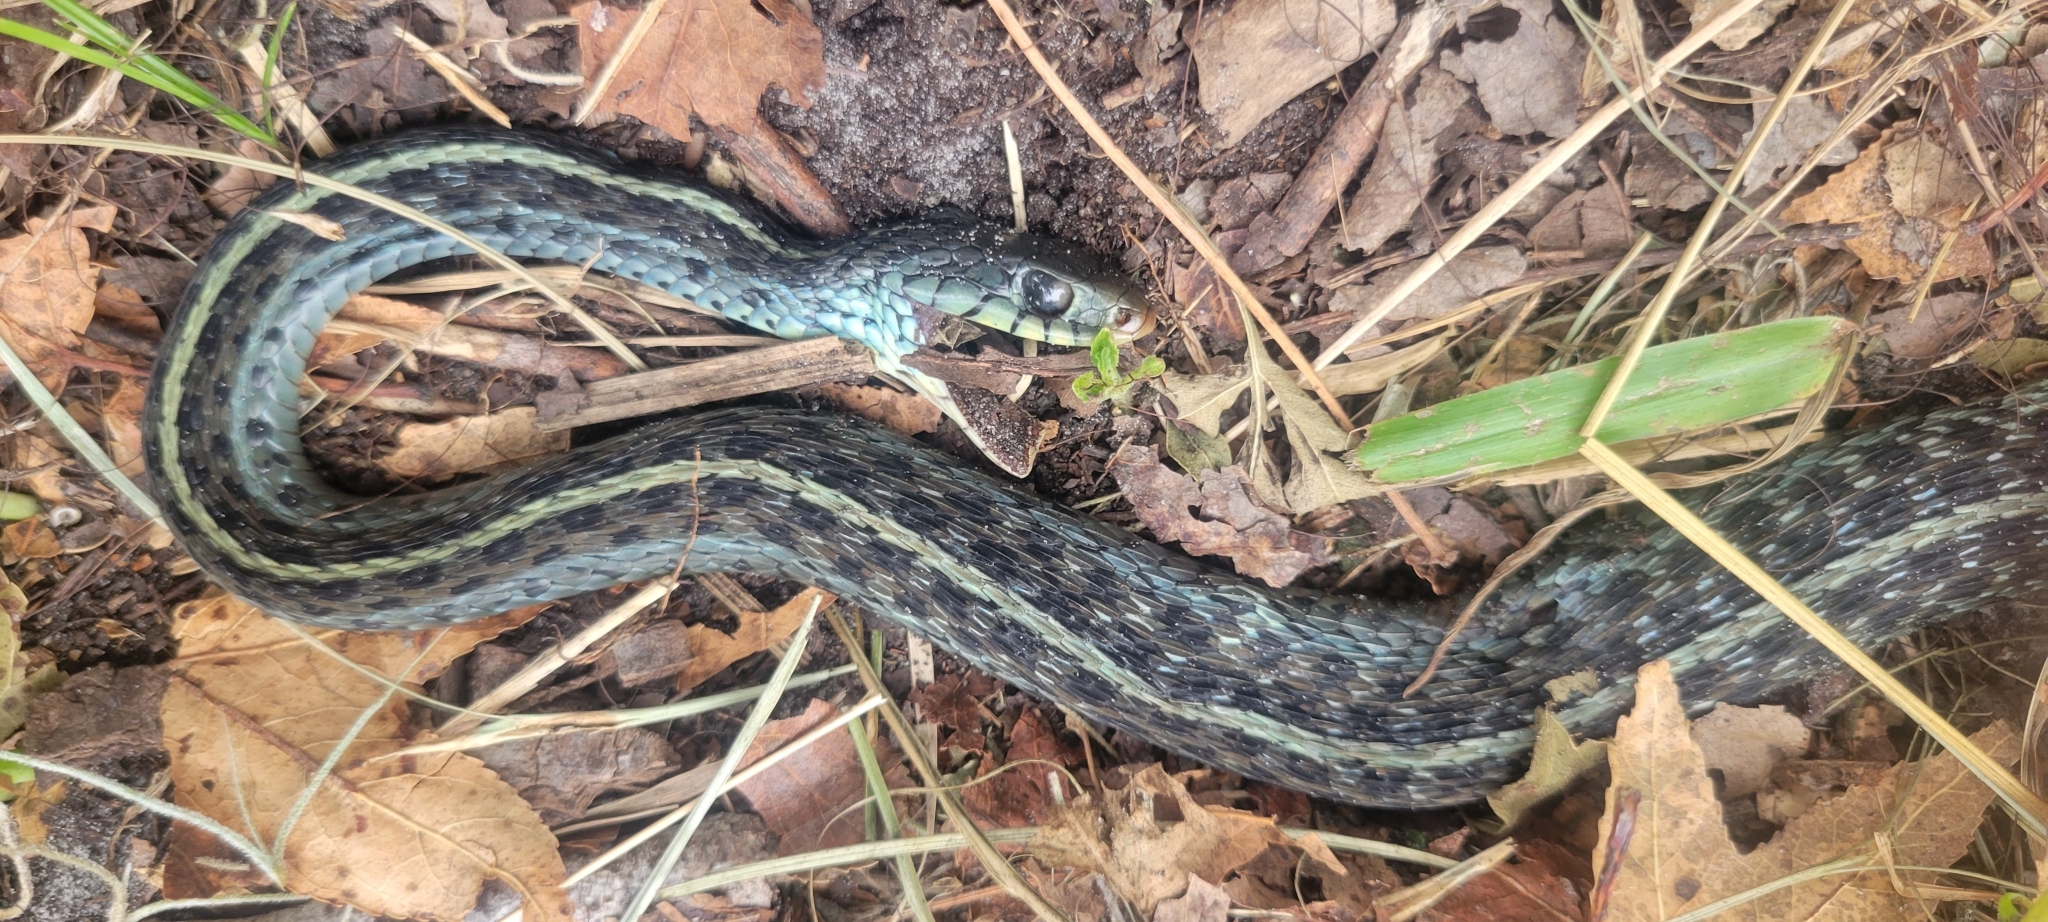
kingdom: Animalia
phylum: Chordata
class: Squamata
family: Colubridae
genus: Thamnophis
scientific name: Thamnophis sirtalis
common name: Common garter snake
